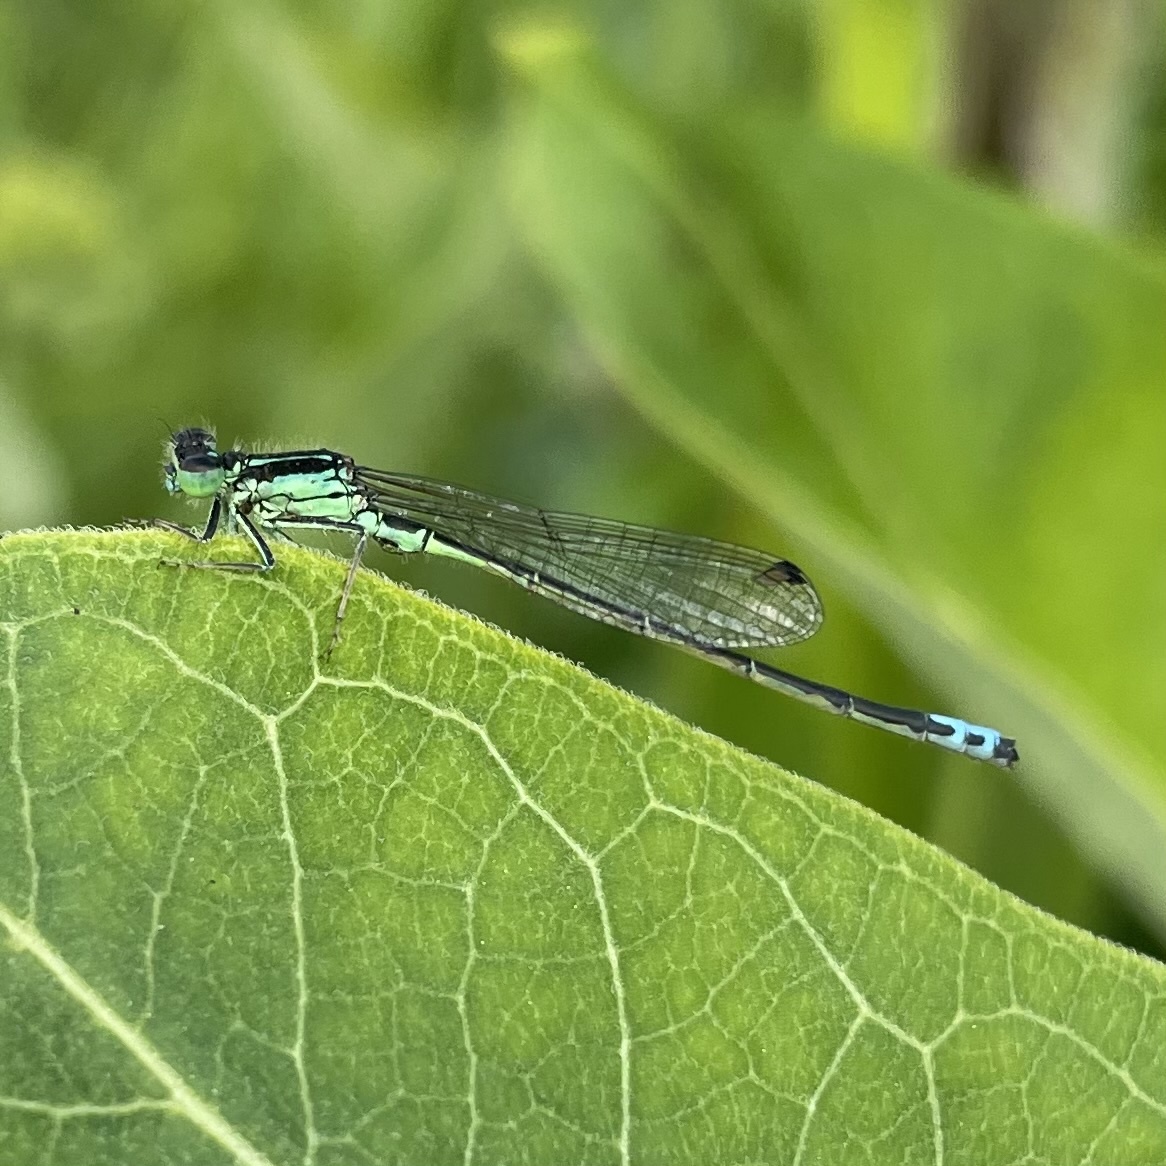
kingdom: Animalia
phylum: Arthropoda
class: Insecta
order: Odonata
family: Coenagrionidae
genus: Ischnura
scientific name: Ischnura verticalis
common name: Eastern forktail
